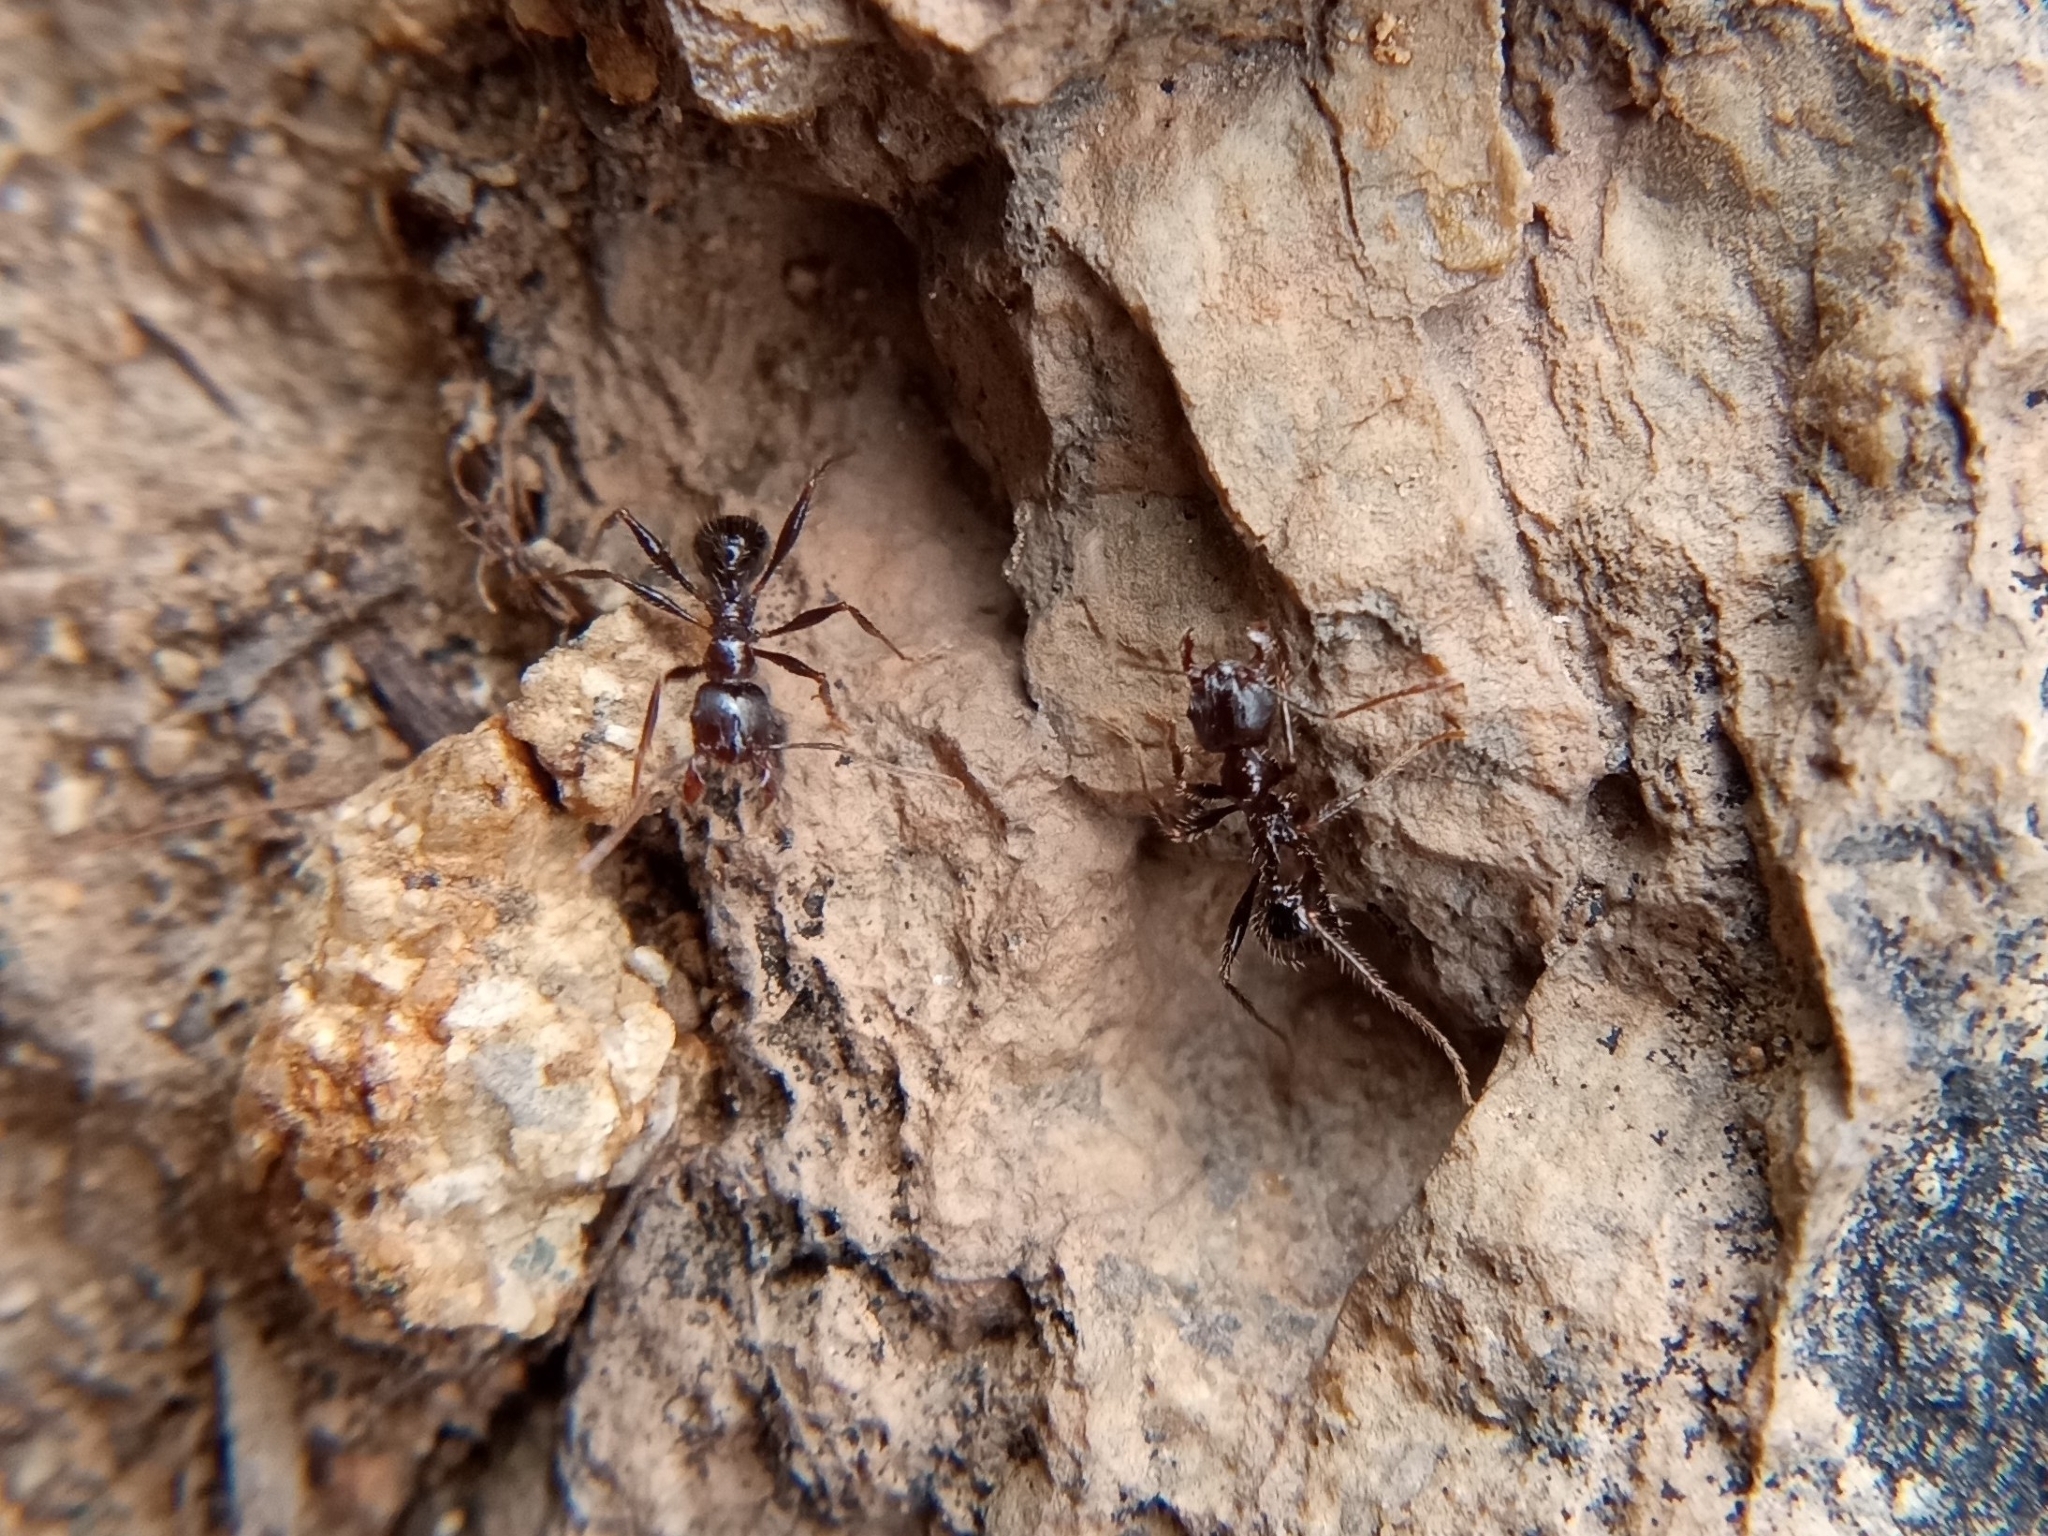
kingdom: Animalia
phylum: Arthropoda
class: Insecta
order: Hymenoptera
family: Formicidae
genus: Pheidole
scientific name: Pheidole rhea
